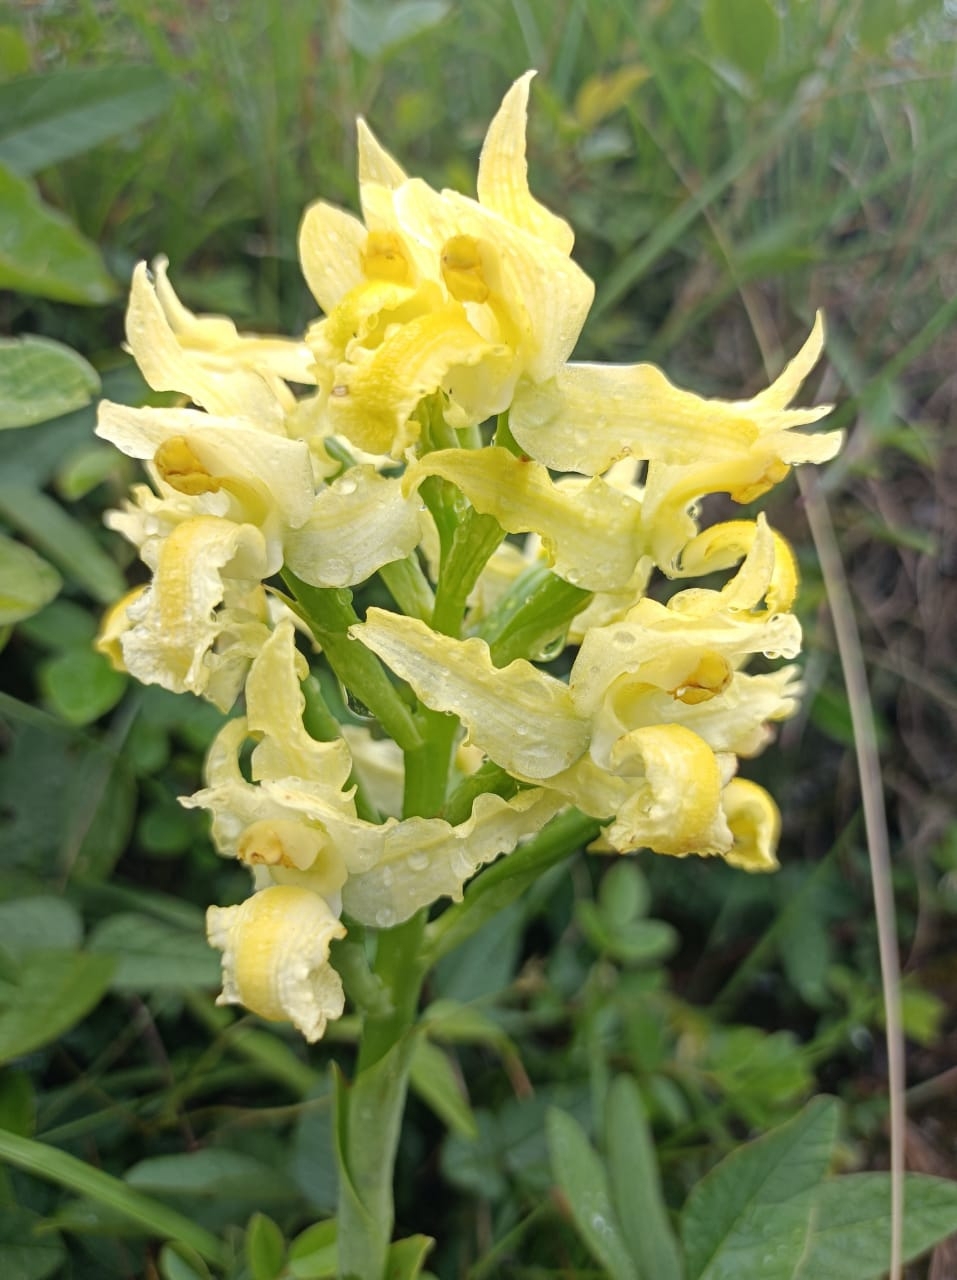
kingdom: Plantae
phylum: Tracheophyta
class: Liliopsida
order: Asparagales
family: Orchidaceae
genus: Chloraea
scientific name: Chloraea densipapillosa
